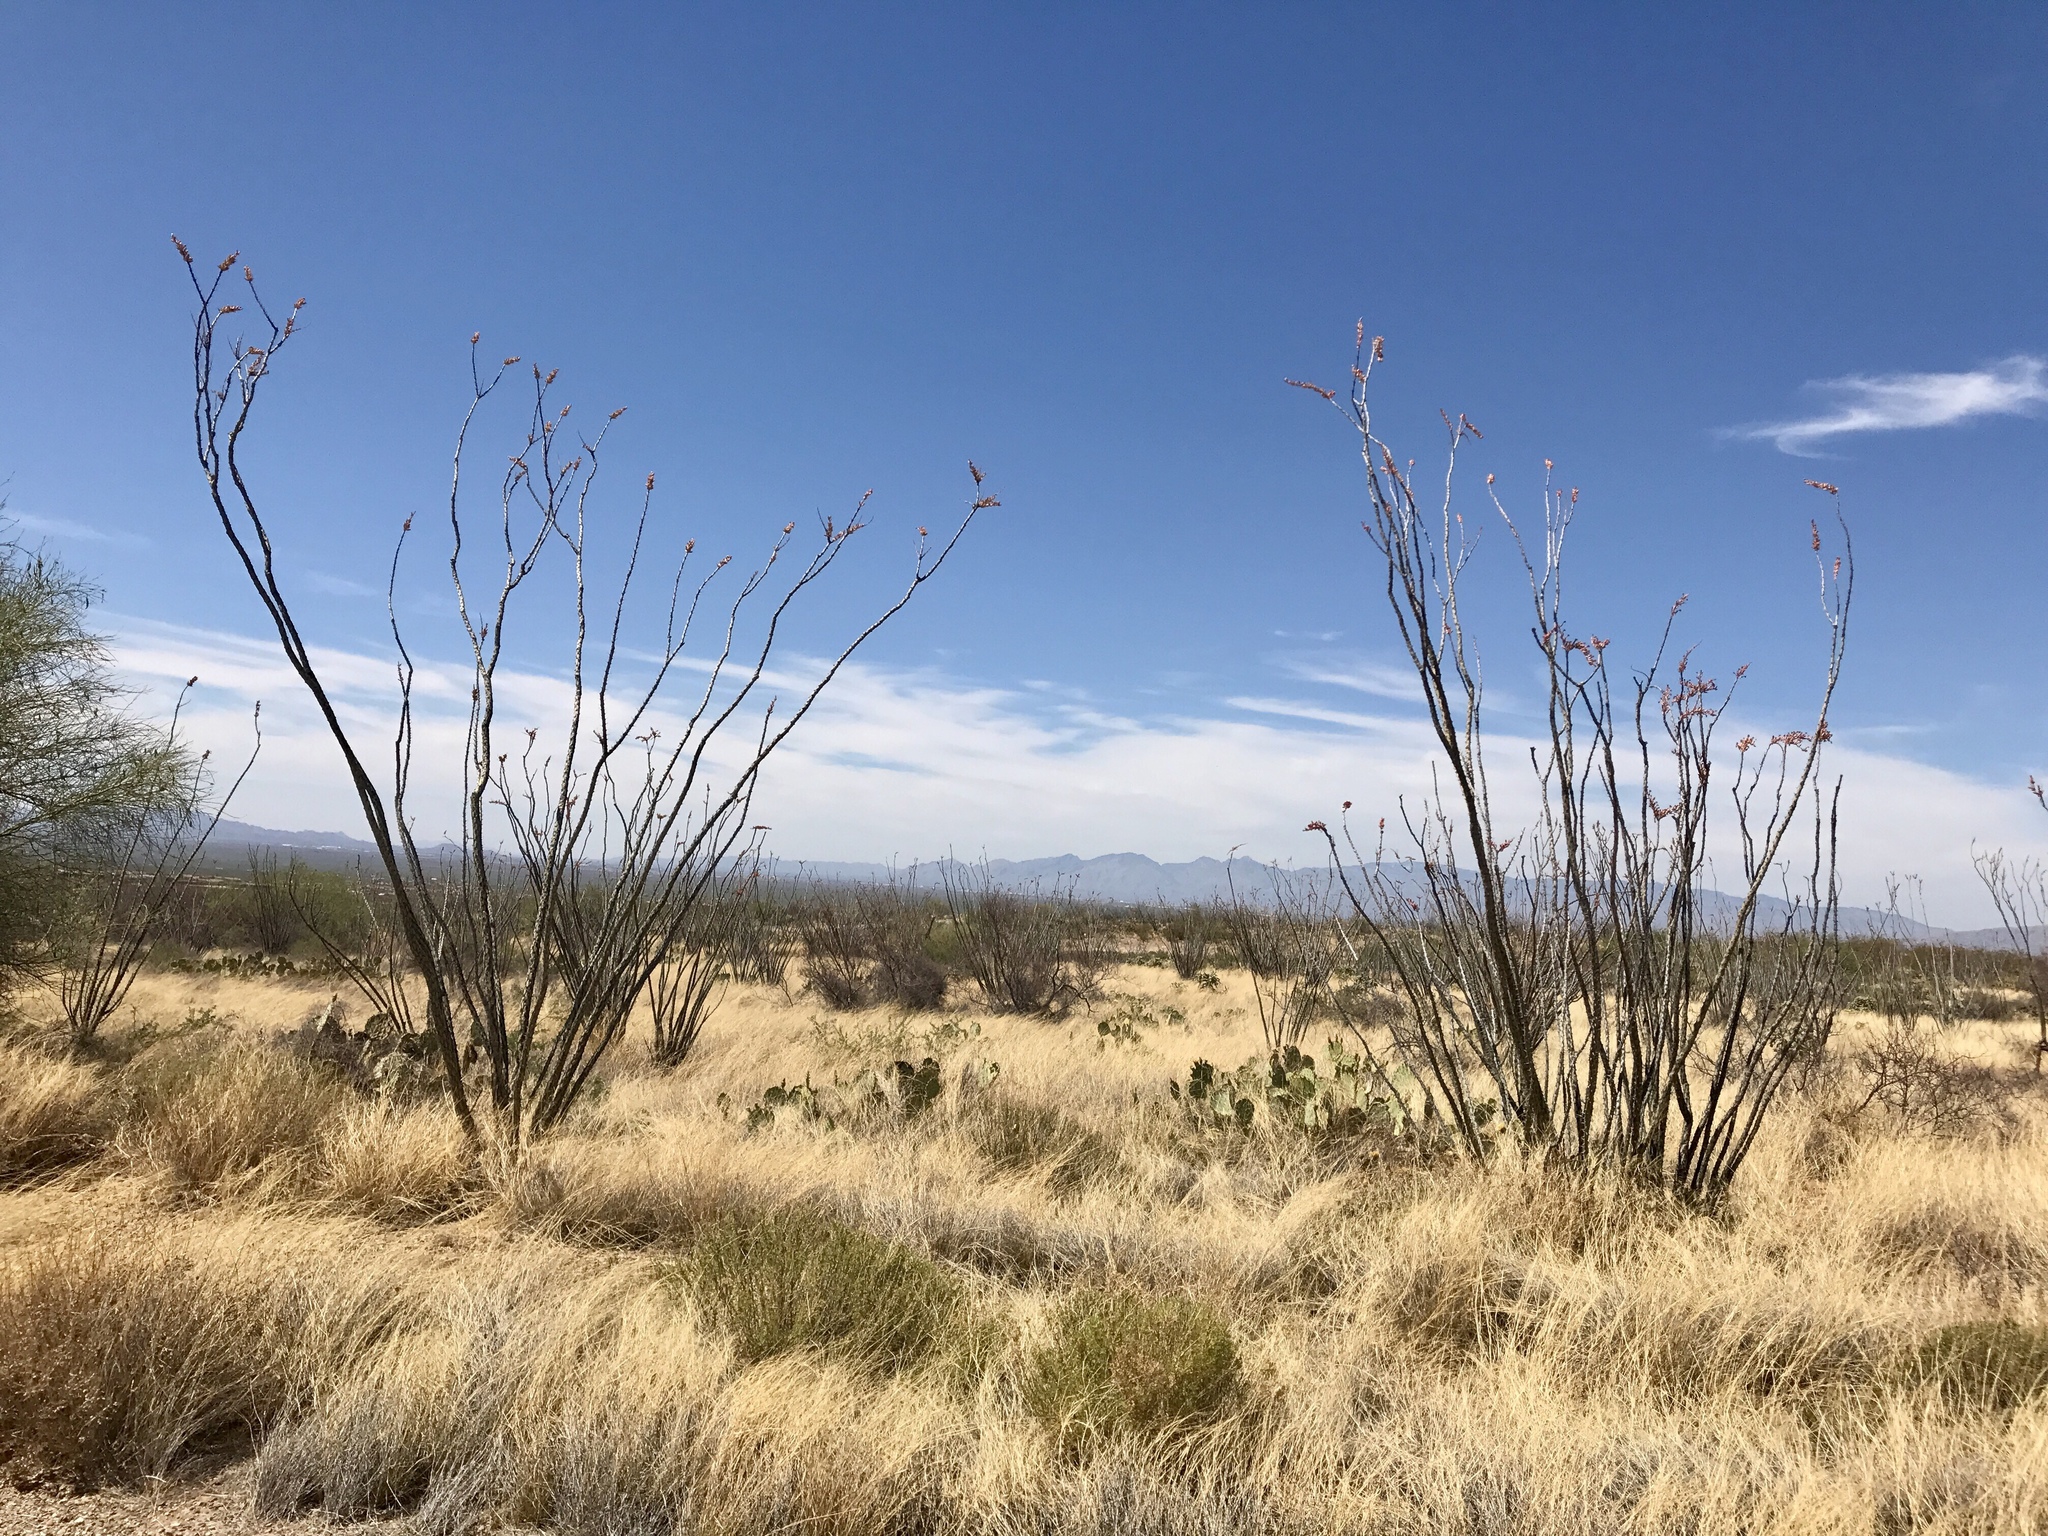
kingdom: Plantae
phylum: Tracheophyta
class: Magnoliopsida
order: Ericales
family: Fouquieriaceae
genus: Fouquieria
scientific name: Fouquieria splendens
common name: Vine-cactus
